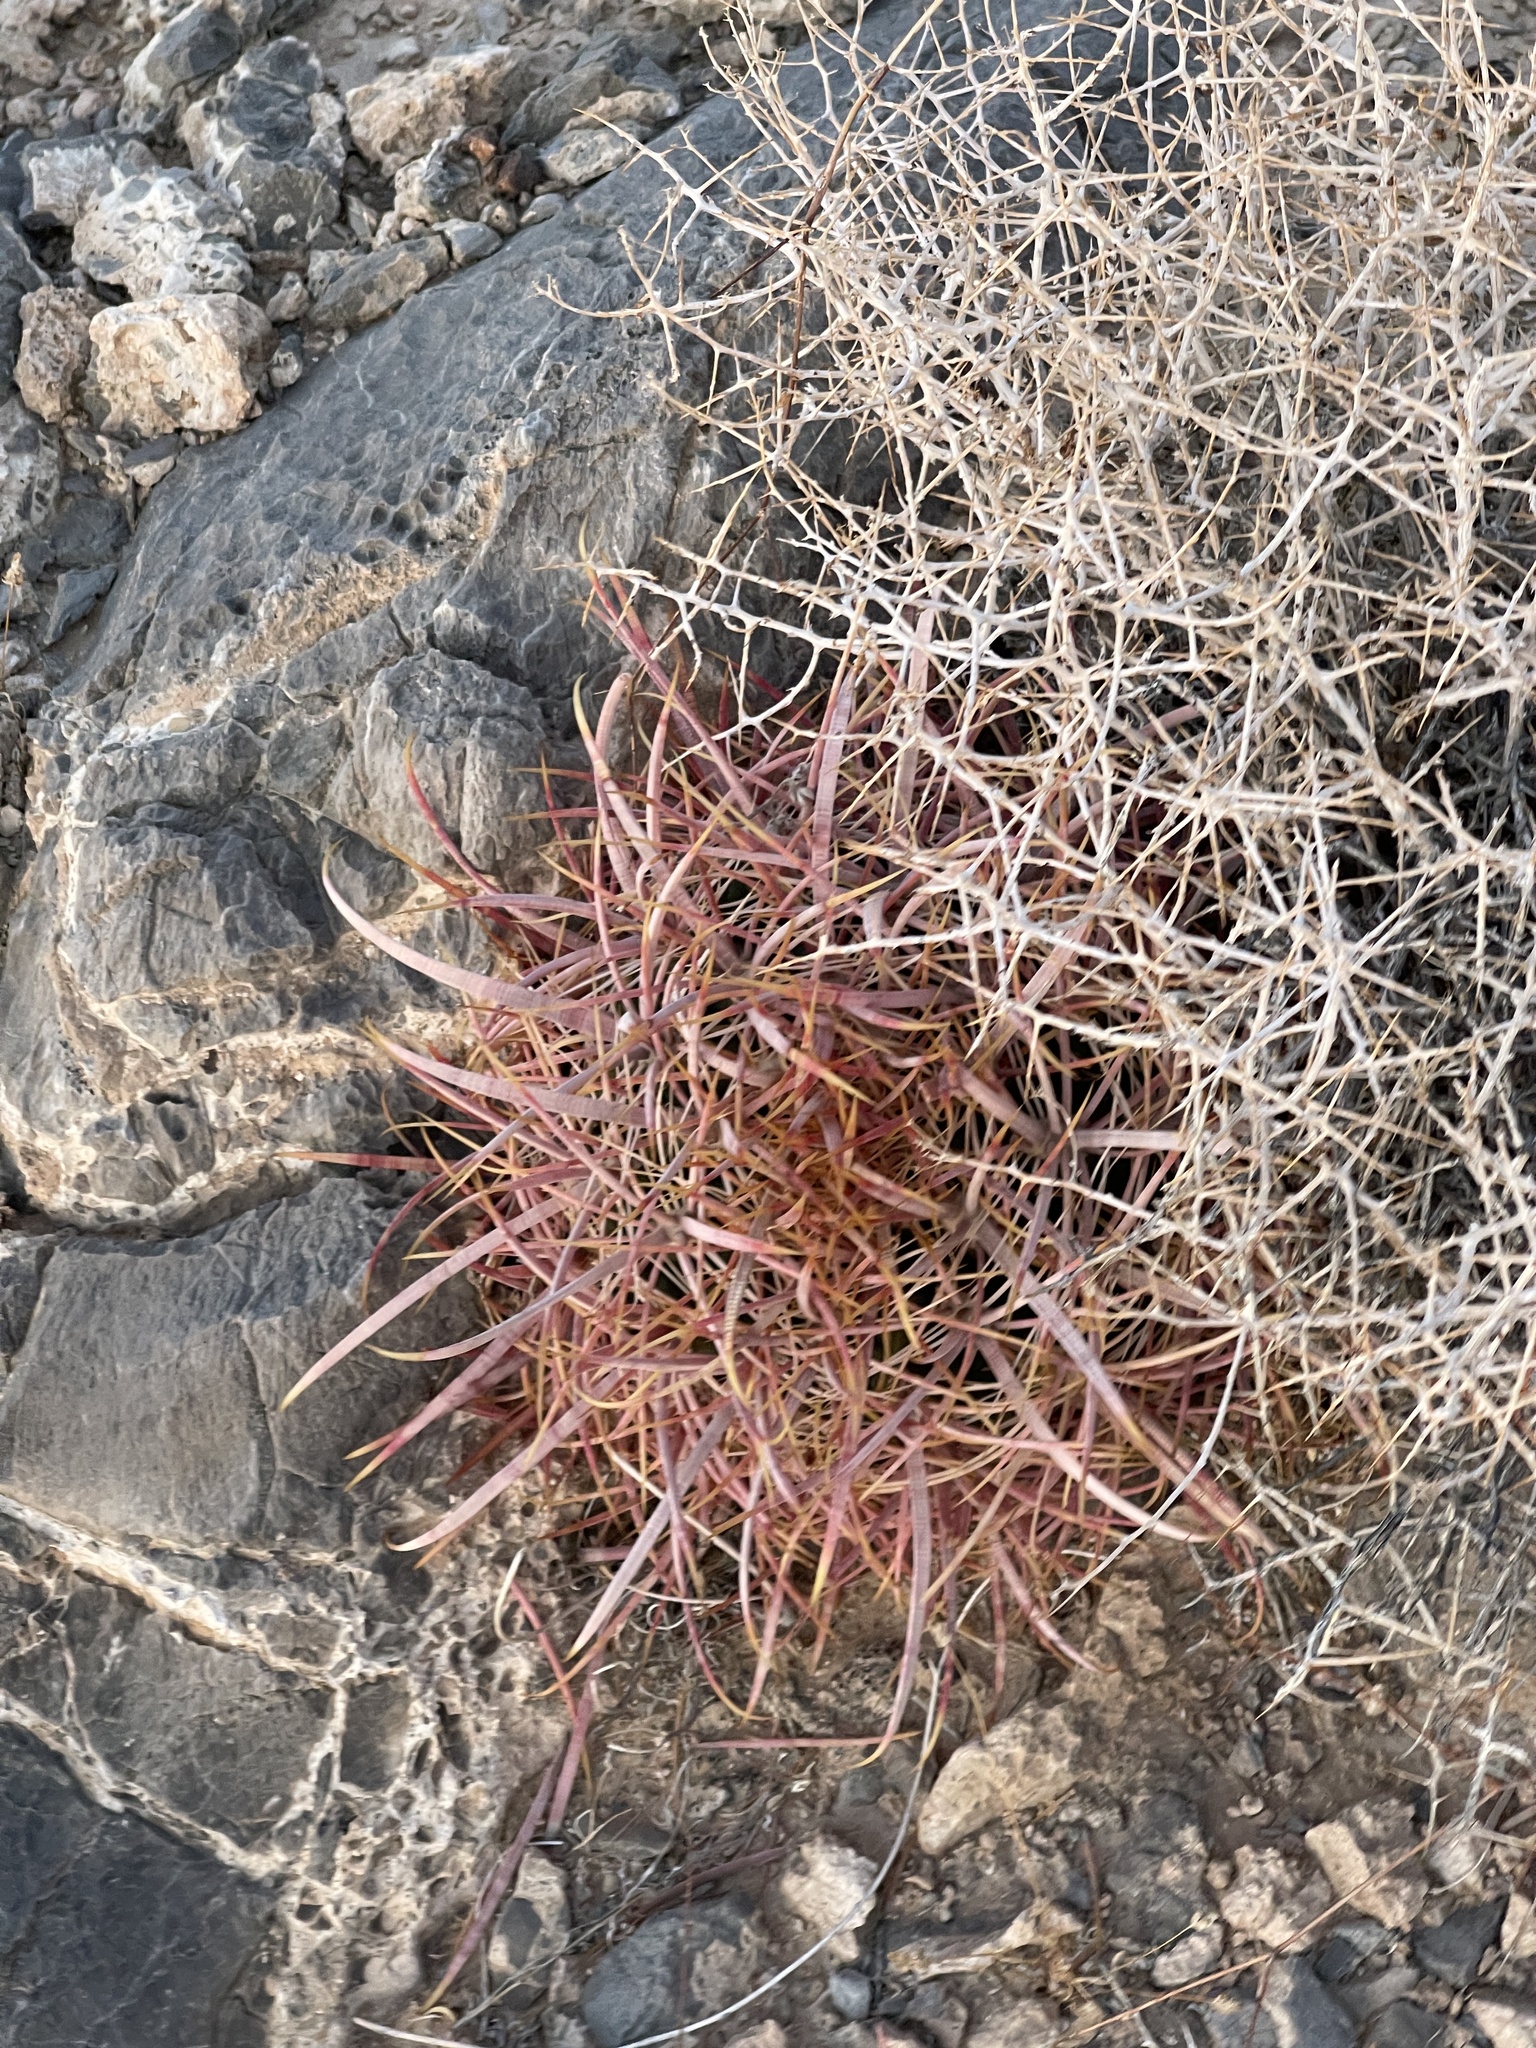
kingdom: Plantae
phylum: Tracheophyta
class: Magnoliopsida
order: Caryophyllales
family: Cactaceae
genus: Ferocactus
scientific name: Ferocactus cylindraceus
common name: California barrel cactus
